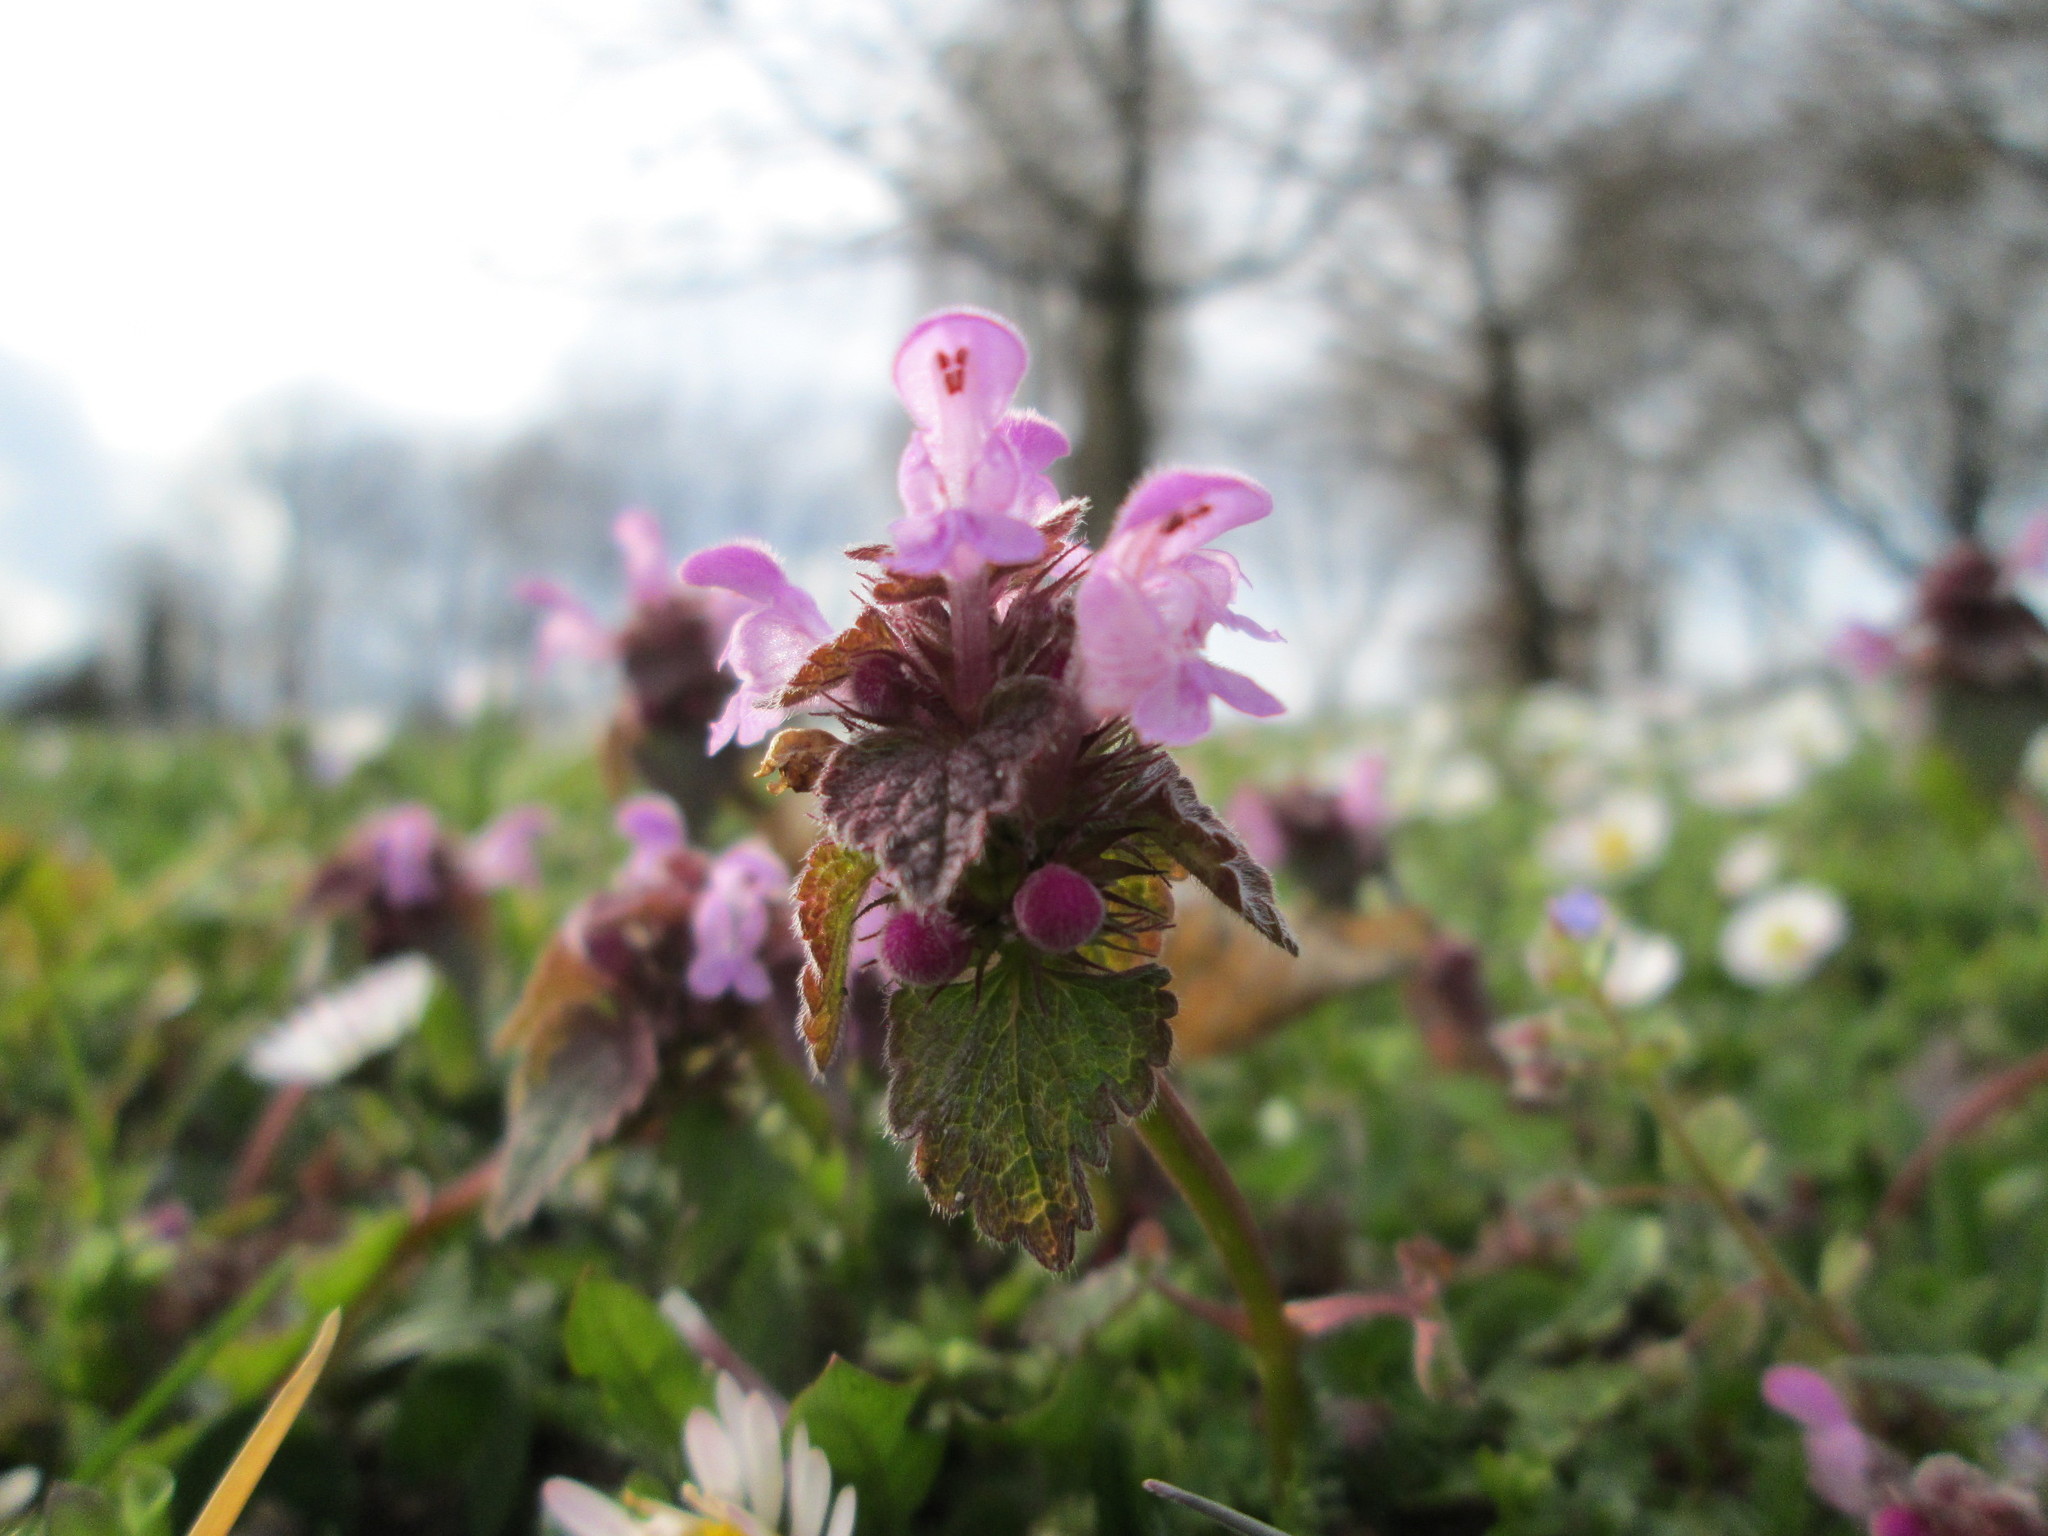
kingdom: Plantae
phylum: Tracheophyta
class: Magnoliopsida
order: Lamiales
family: Lamiaceae
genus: Lamium
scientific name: Lamium purpureum
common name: Red dead-nettle
